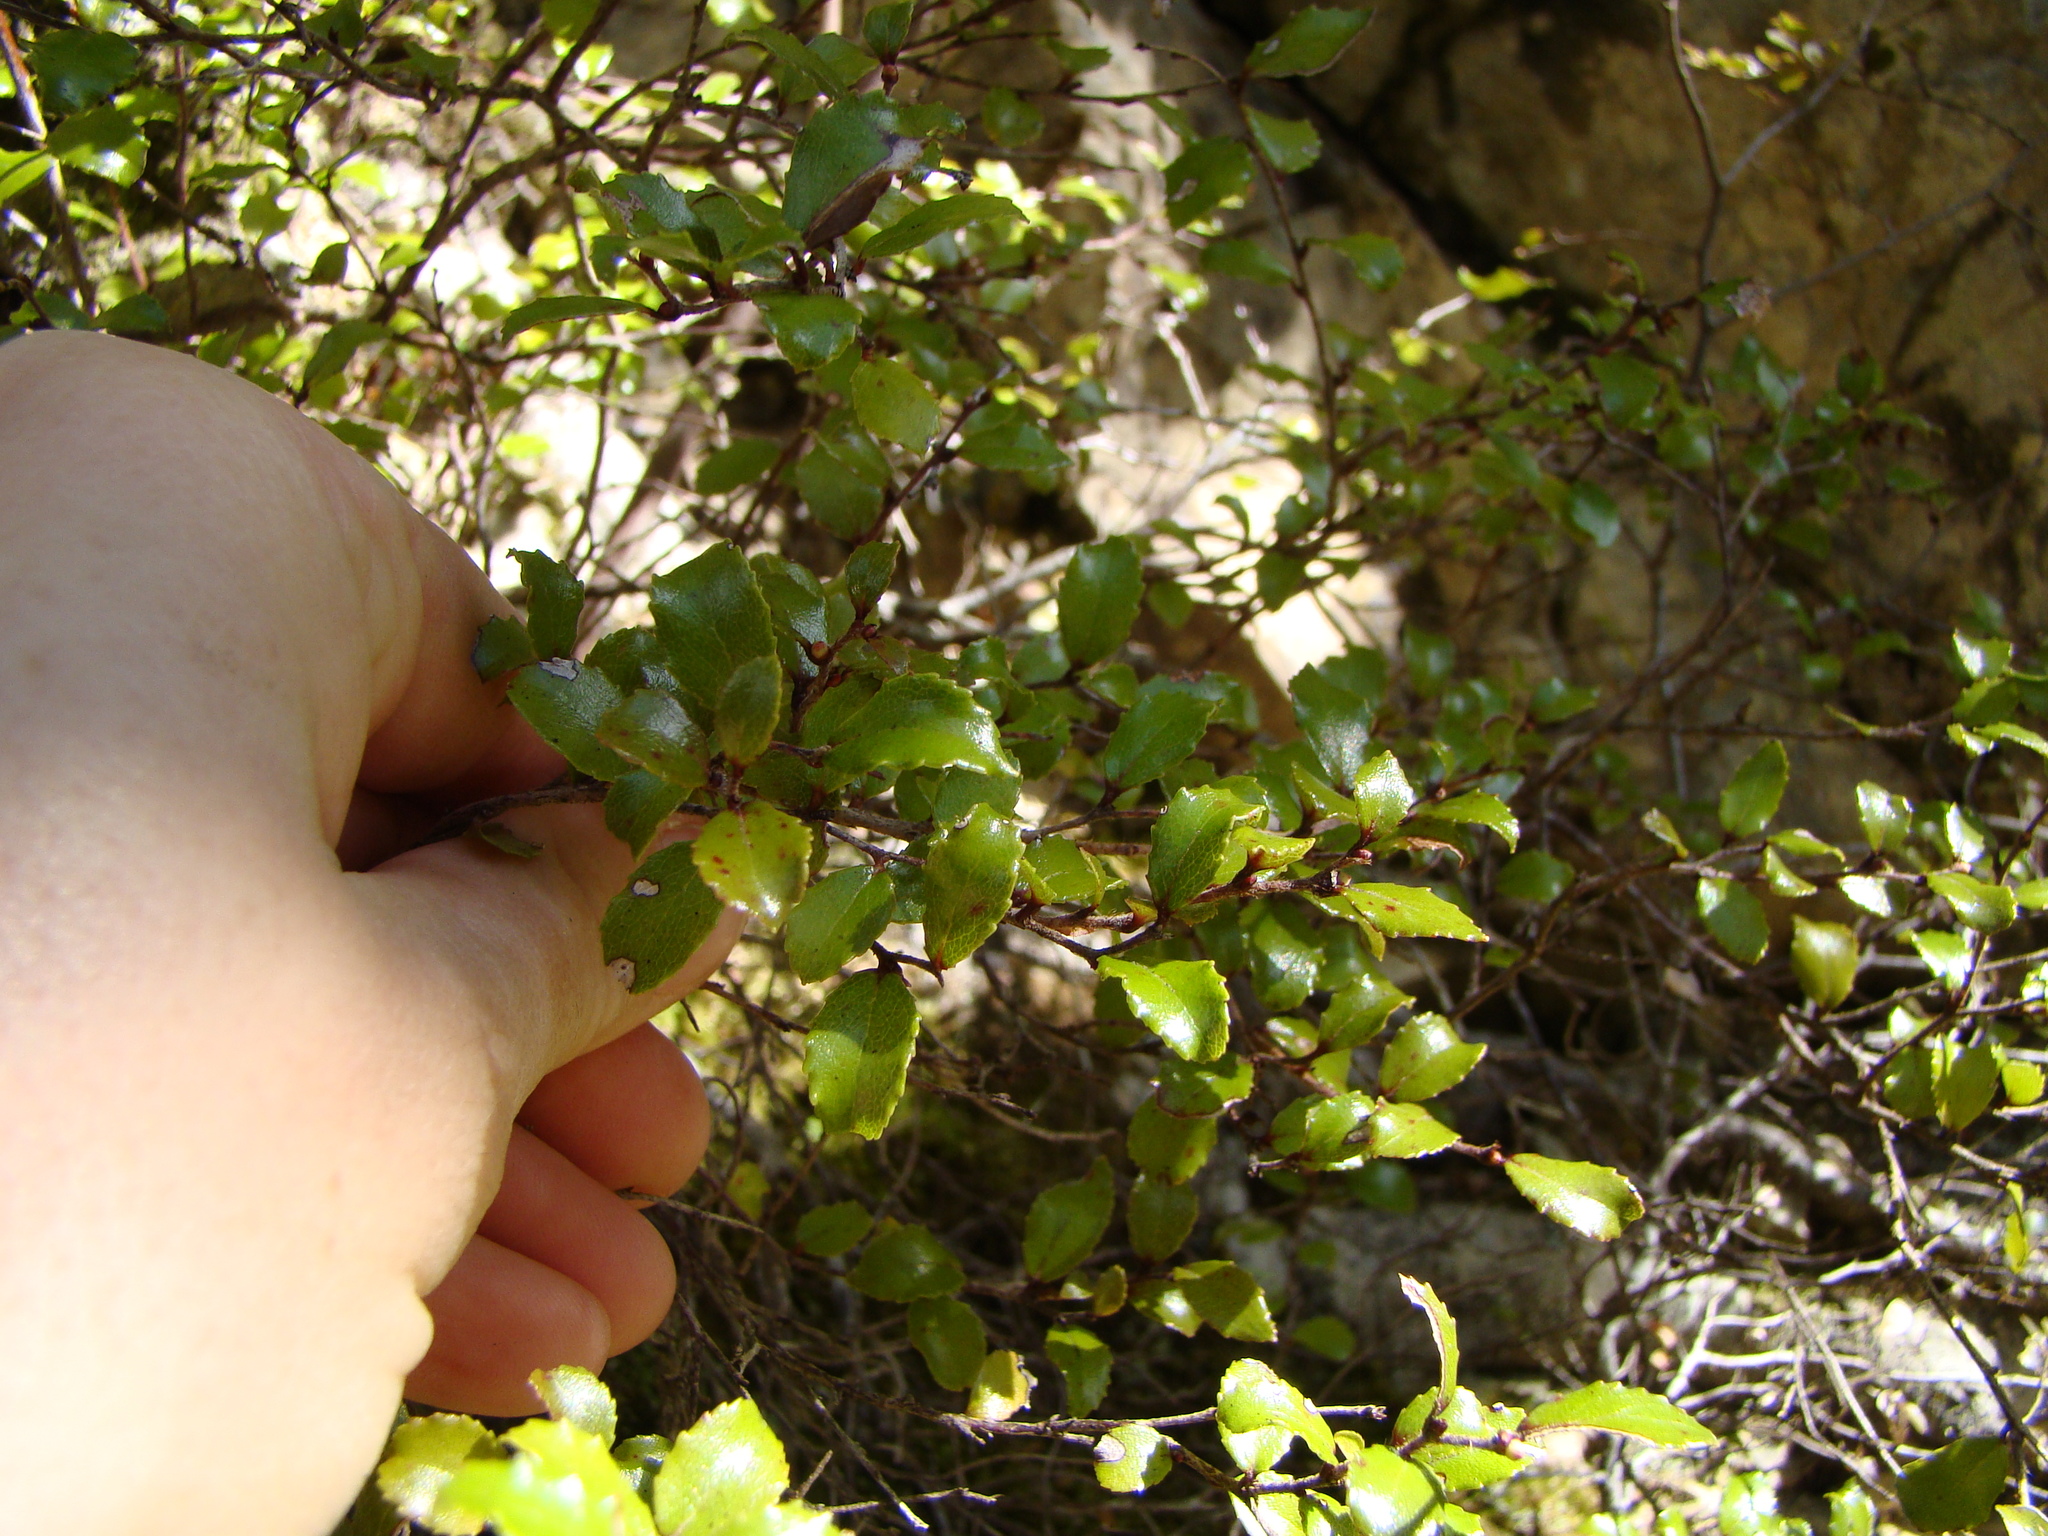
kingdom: Plantae
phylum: Tracheophyta
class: Magnoliopsida
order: Ericales
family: Ericaceae
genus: Gaultheria
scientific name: Gaultheria antipoda
